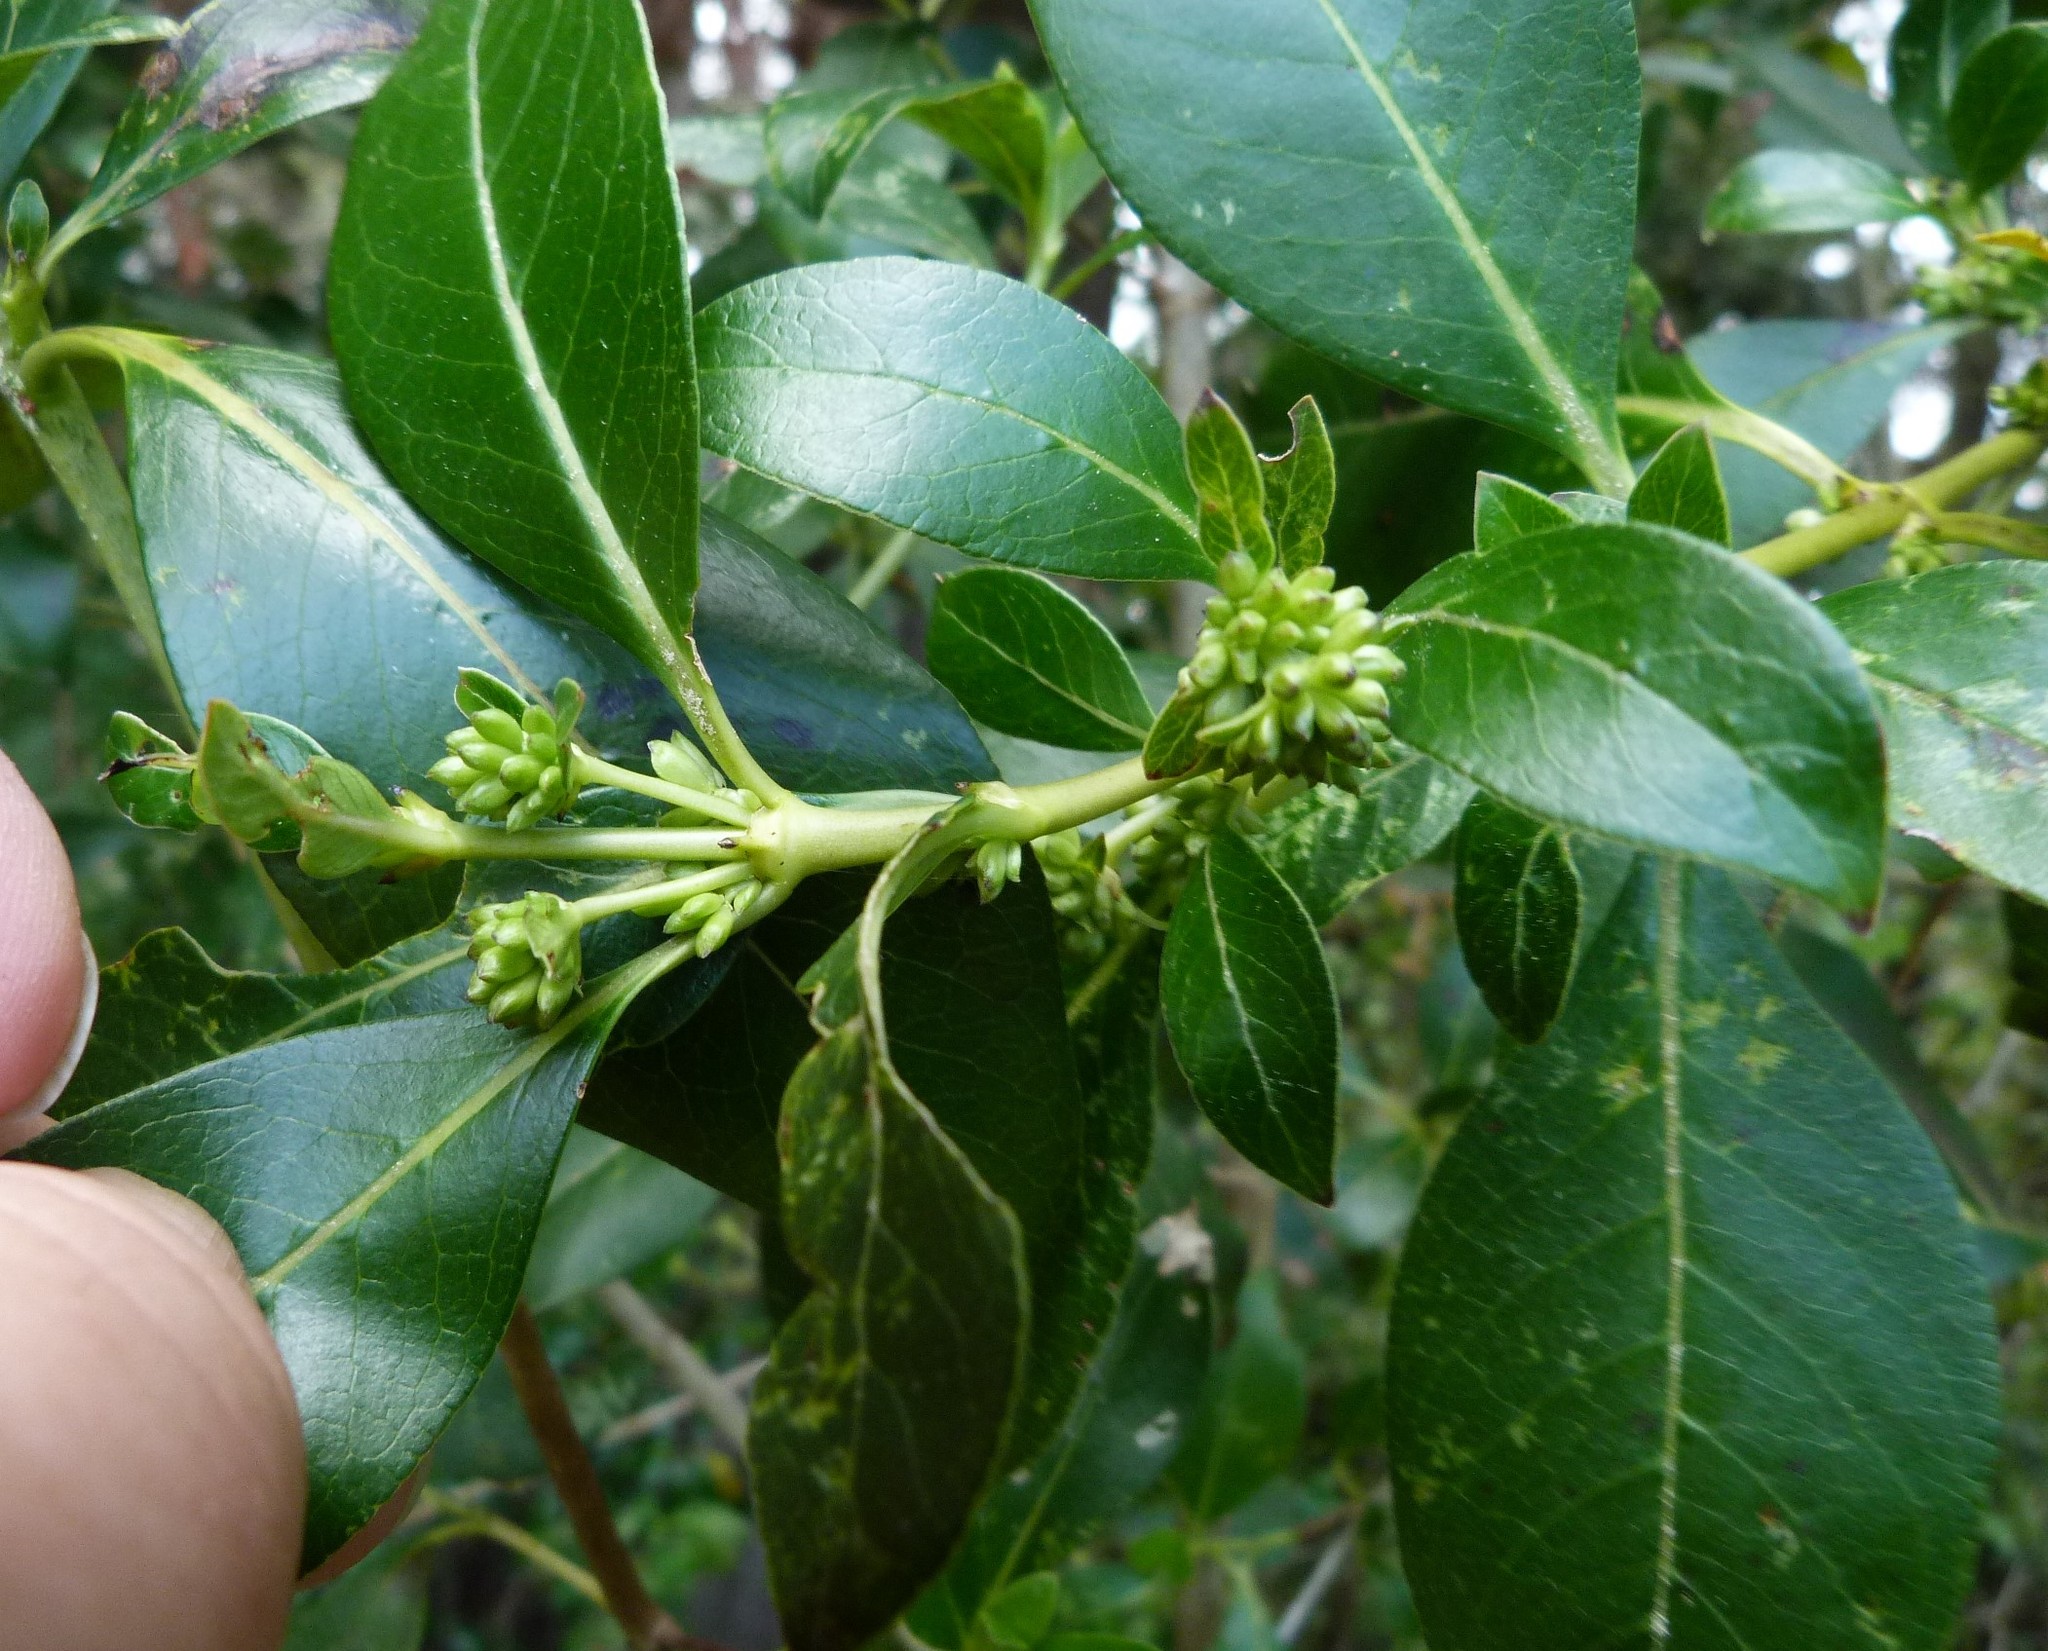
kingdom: Plantae
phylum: Tracheophyta
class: Magnoliopsida
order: Gentianales
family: Rubiaceae
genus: Coprosma
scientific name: Coprosma robusta
